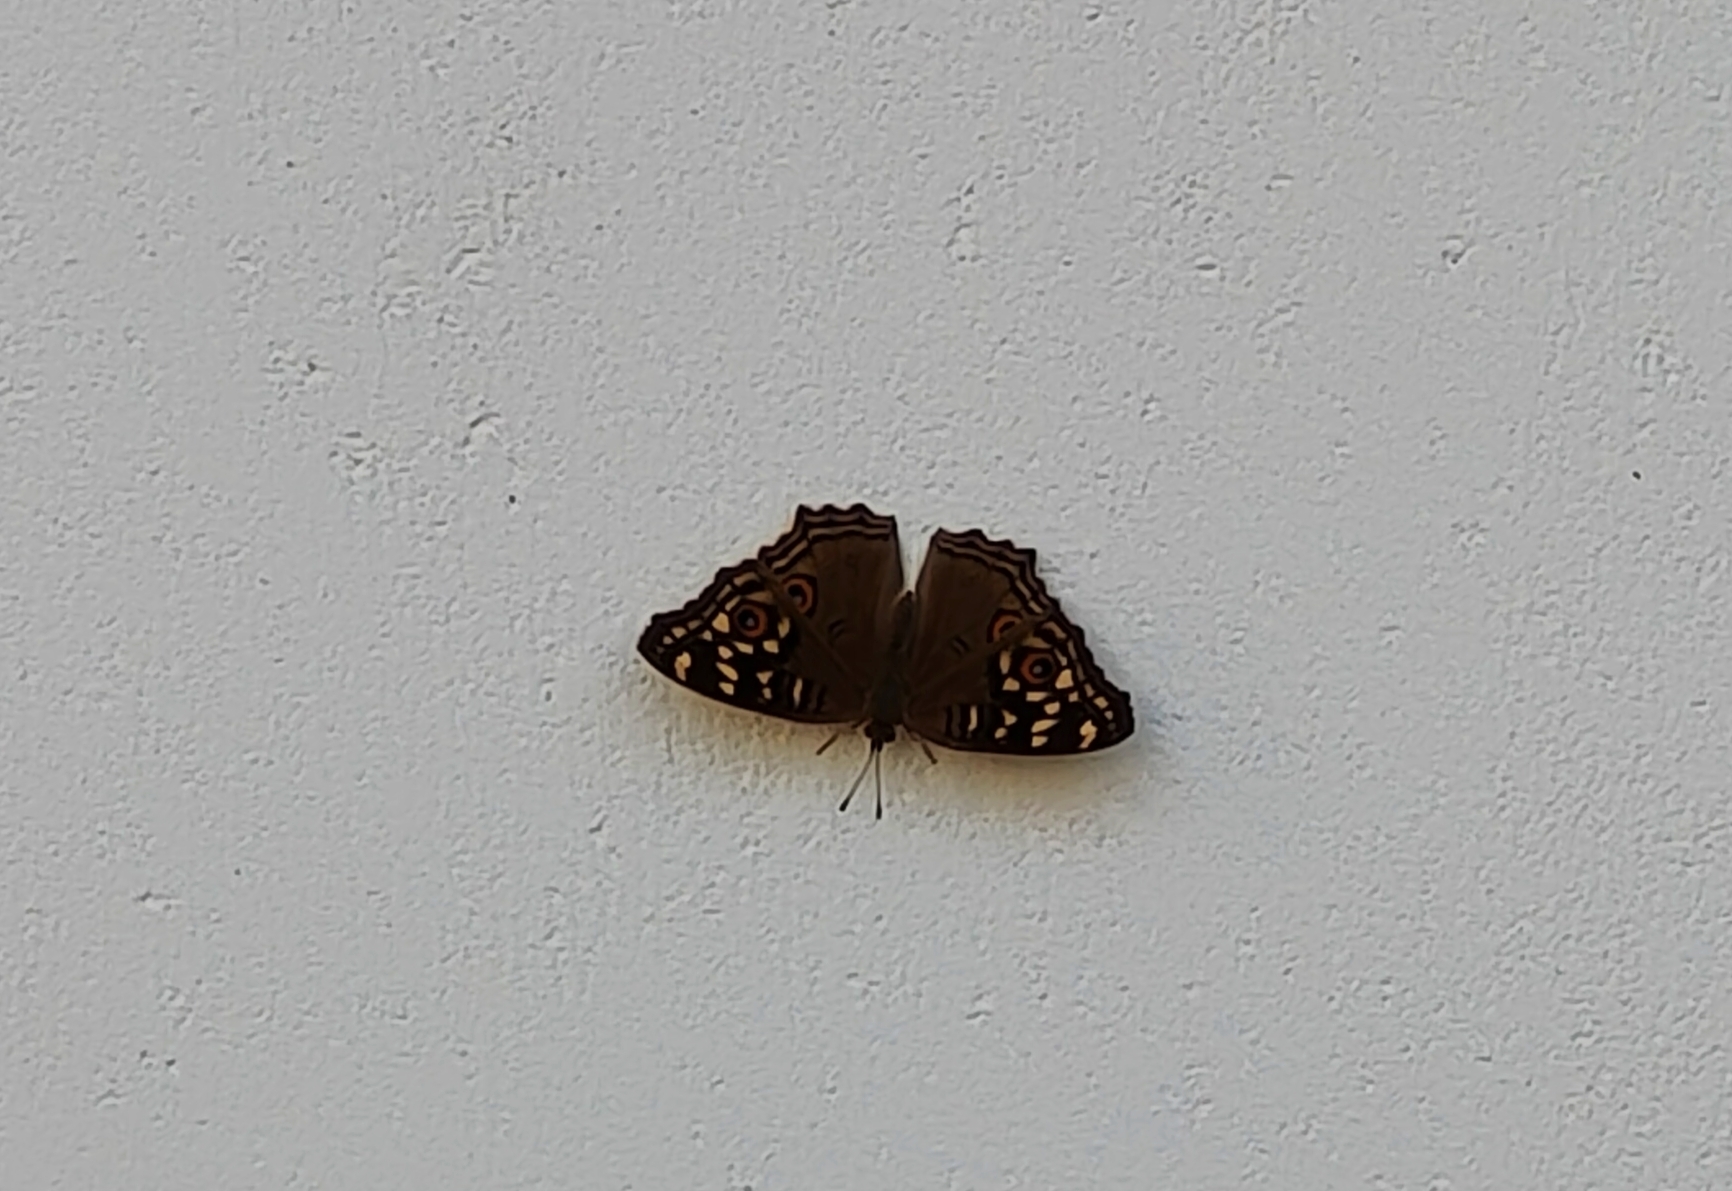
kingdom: Animalia
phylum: Arthropoda
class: Insecta
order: Lepidoptera
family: Nymphalidae
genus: Junonia
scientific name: Junonia lemonias
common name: Lemon pansy
